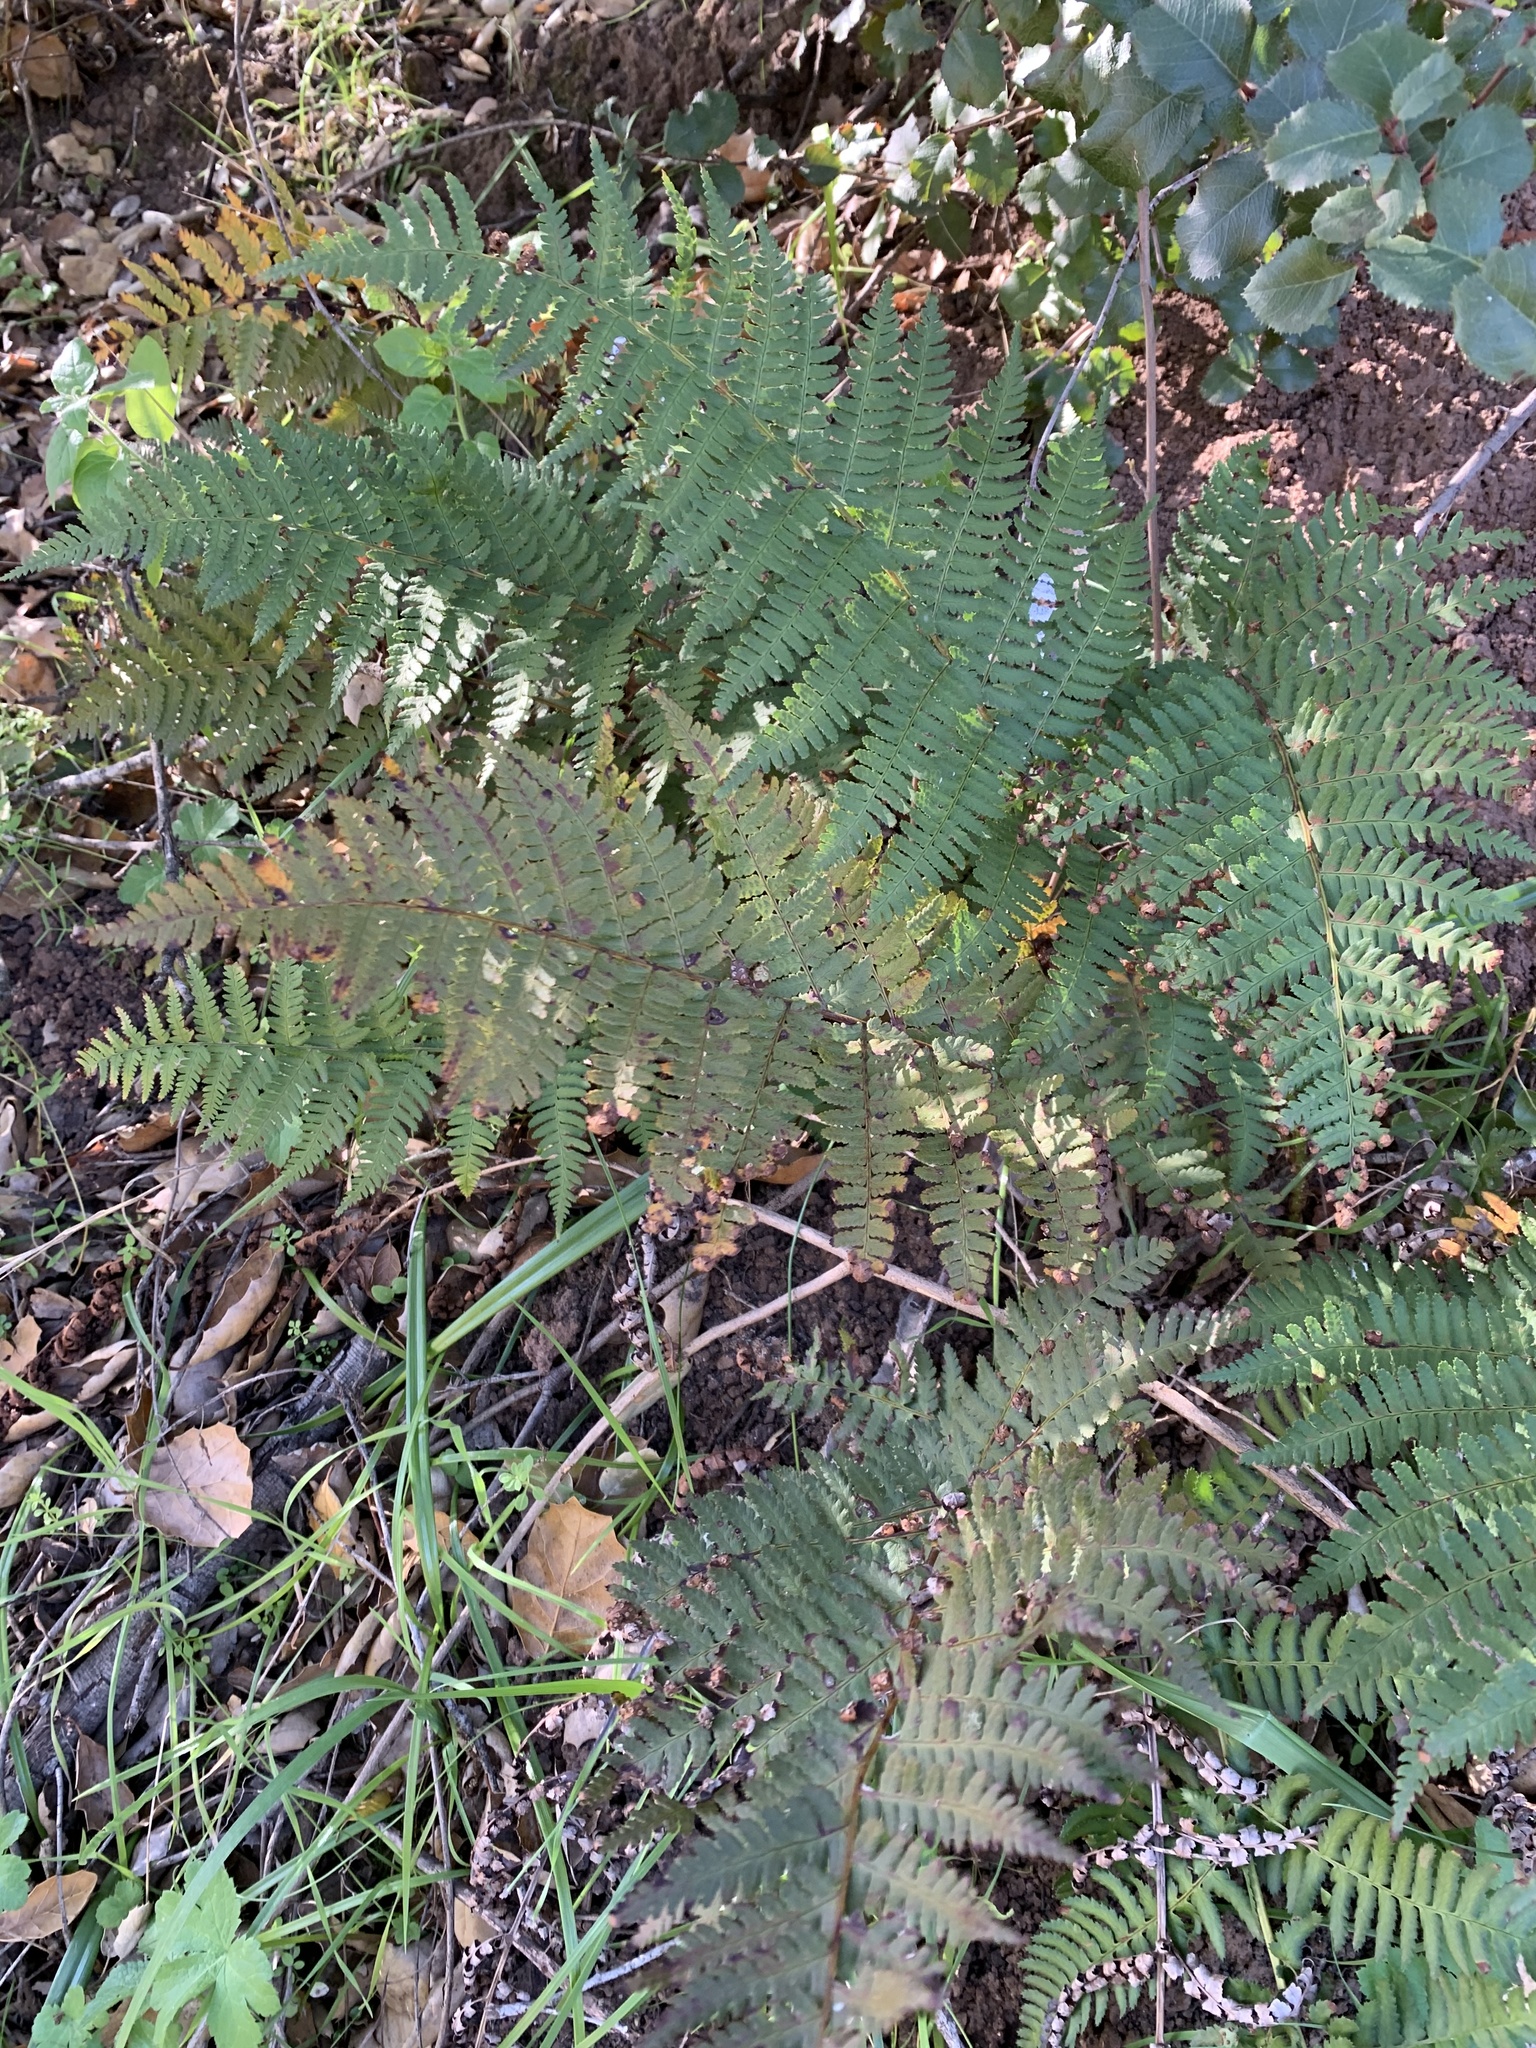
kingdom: Plantae
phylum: Tracheophyta
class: Polypodiopsida
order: Polypodiales
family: Dryopteridaceae
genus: Dryopteris
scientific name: Dryopteris arguta
